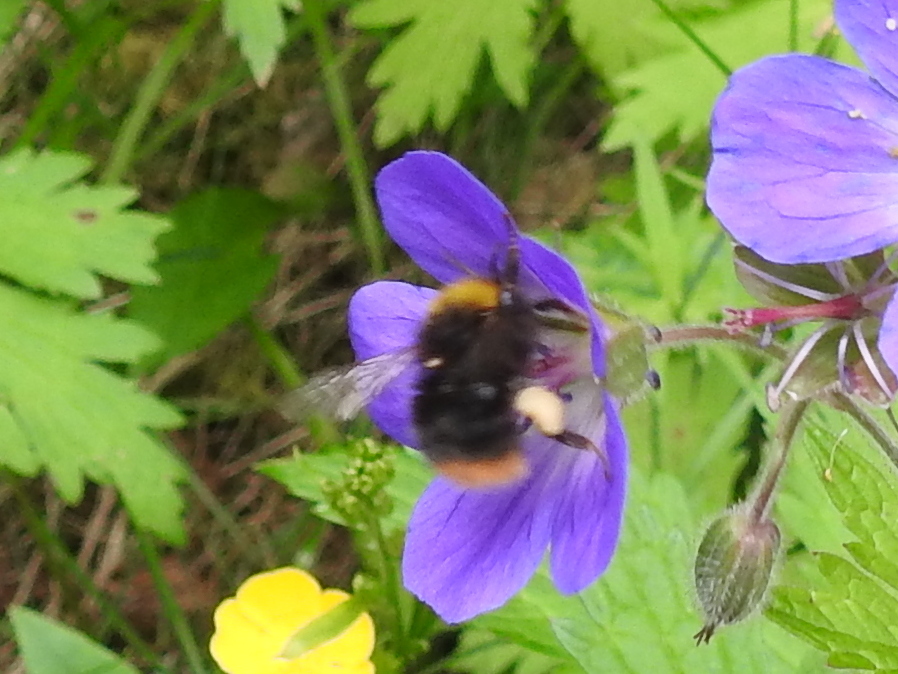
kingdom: Animalia
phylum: Arthropoda
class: Insecta
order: Hymenoptera
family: Apidae
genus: Bombus
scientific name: Bombus pratorum
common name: Early humble-bee
